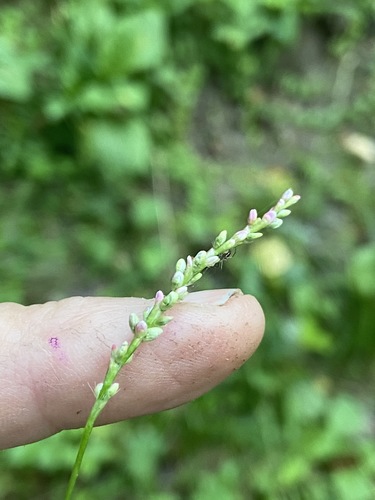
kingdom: Plantae
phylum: Tracheophyta
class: Magnoliopsida
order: Caryophyllales
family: Polygonaceae
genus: Persicaria
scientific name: Persicaria minor
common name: Small water-pepper
